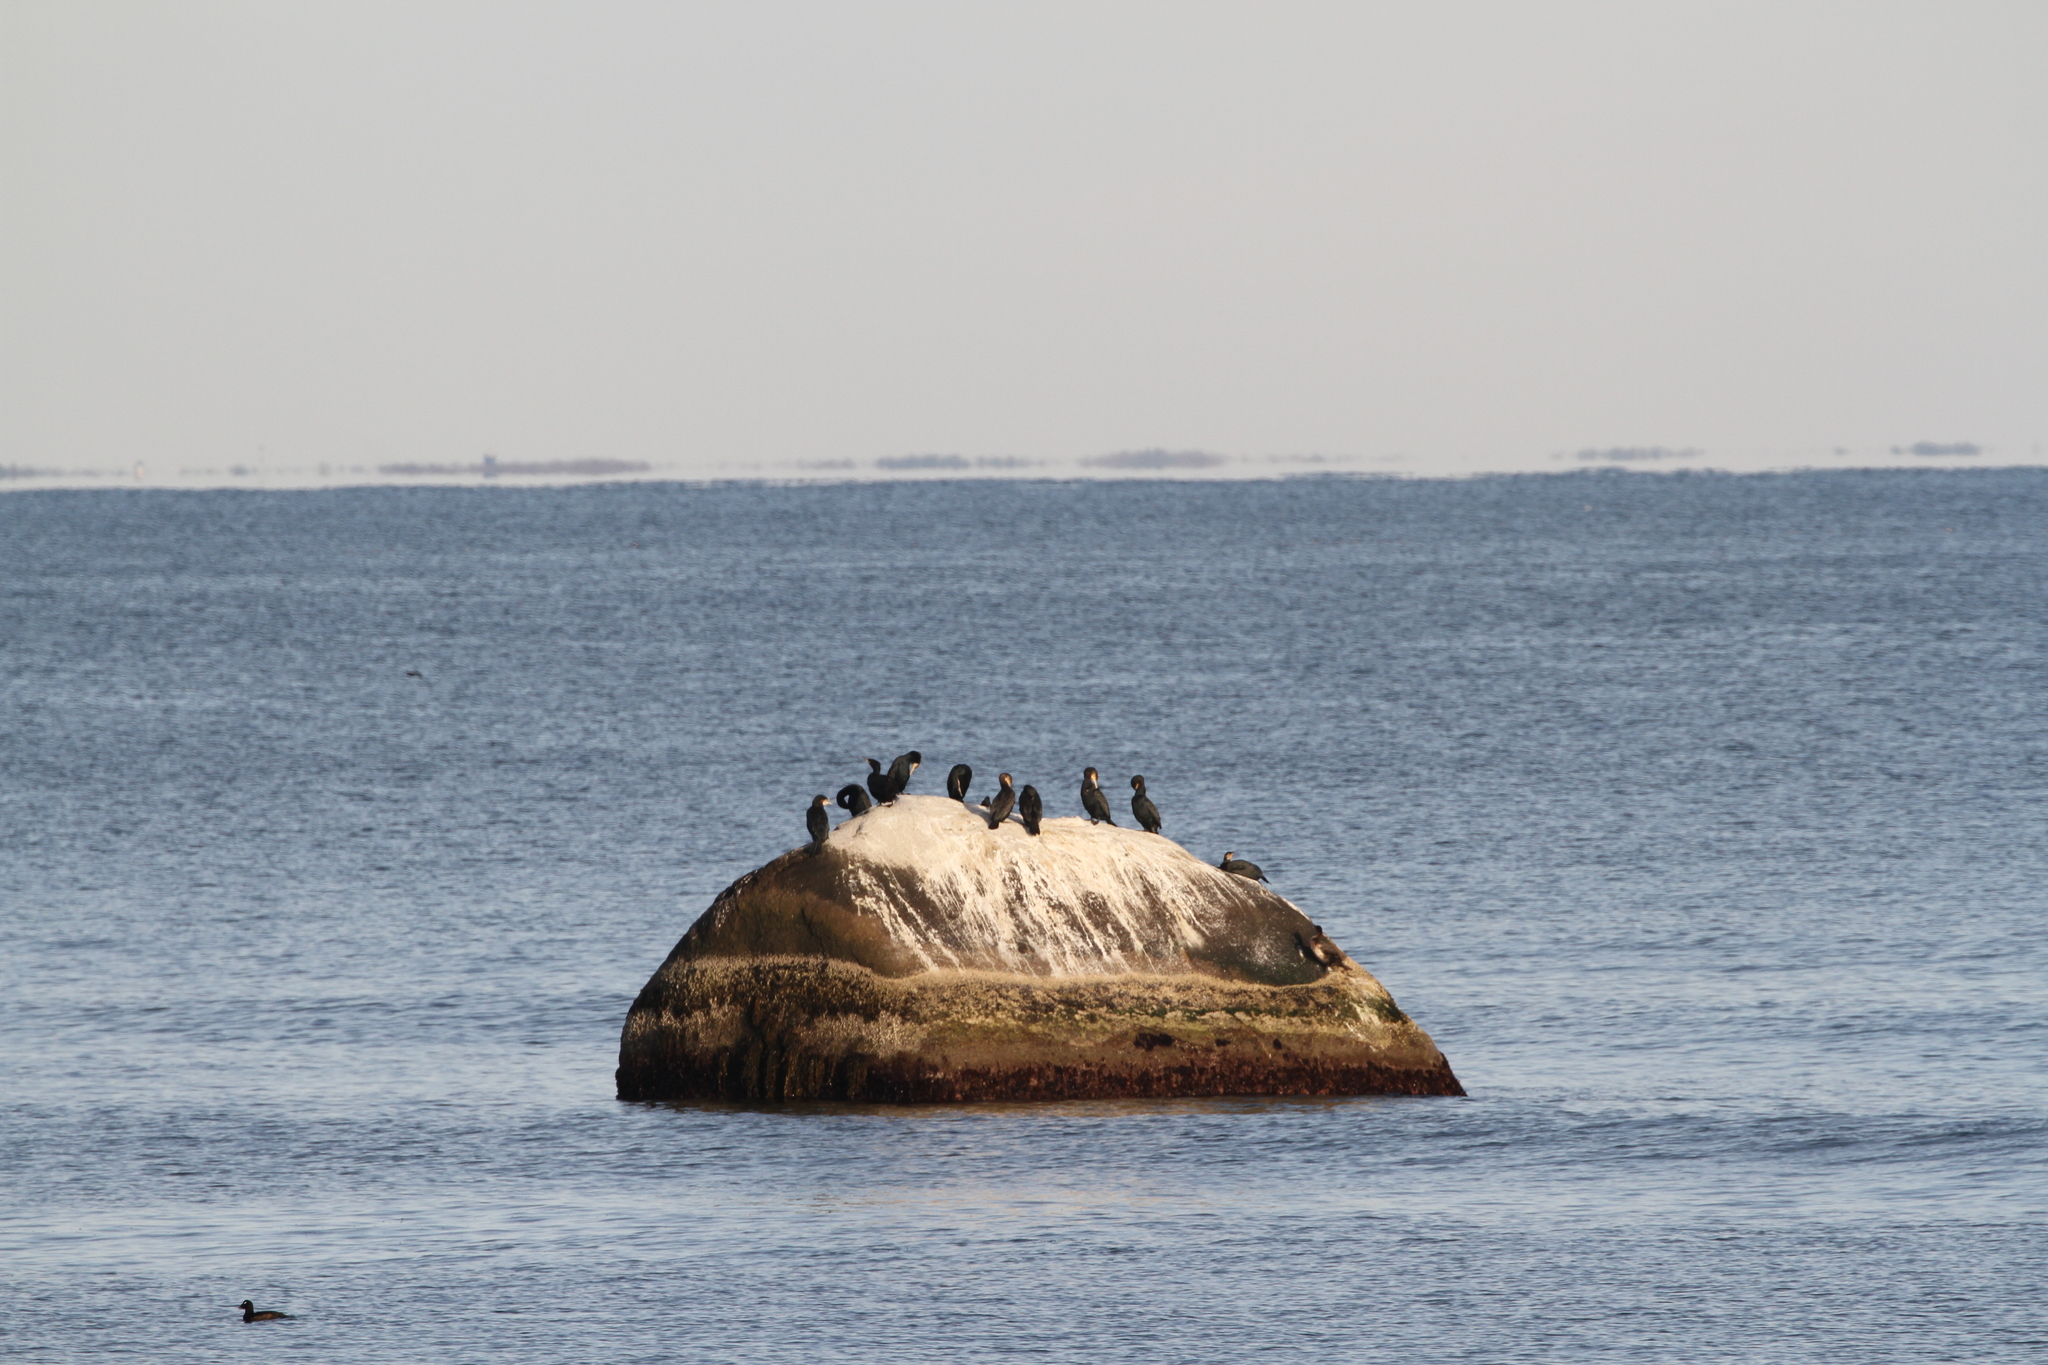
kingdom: Animalia
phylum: Chordata
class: Aves
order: Suliformes
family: Phalacrocoracidae
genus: Phalacrocorax
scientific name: Phalacrocorax carbo
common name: Great cormorant
